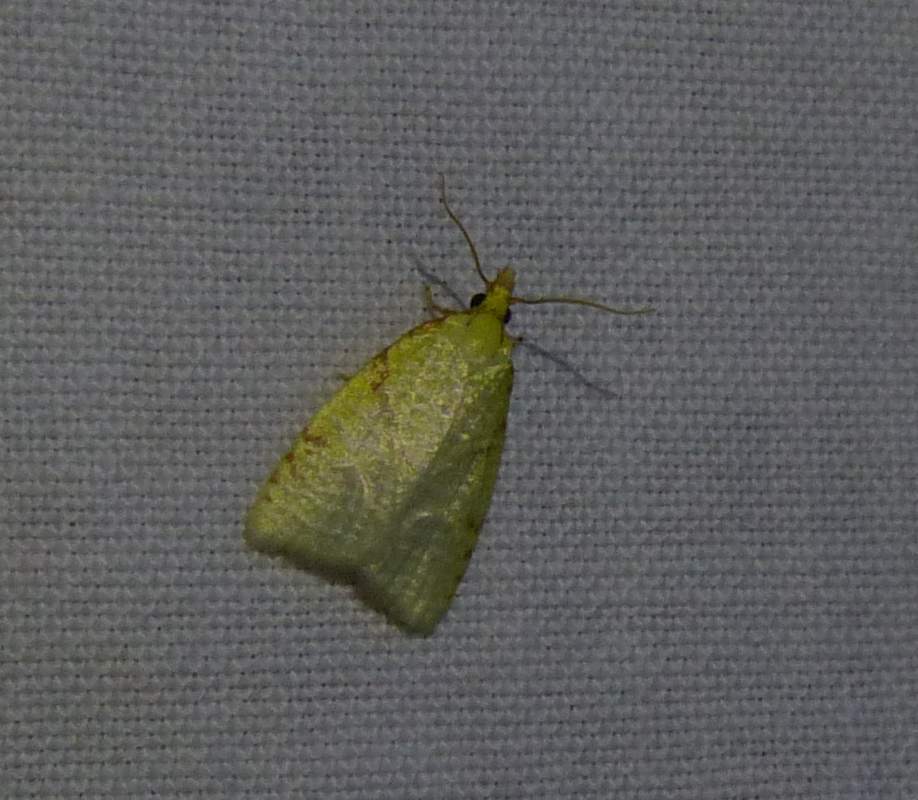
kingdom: Animalia
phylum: Arthropoda
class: Insecta
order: Lepidoptera
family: Tortricidae
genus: Cenopis
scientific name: Cenopis pettitana
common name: Maple-basswood leafroller moth
